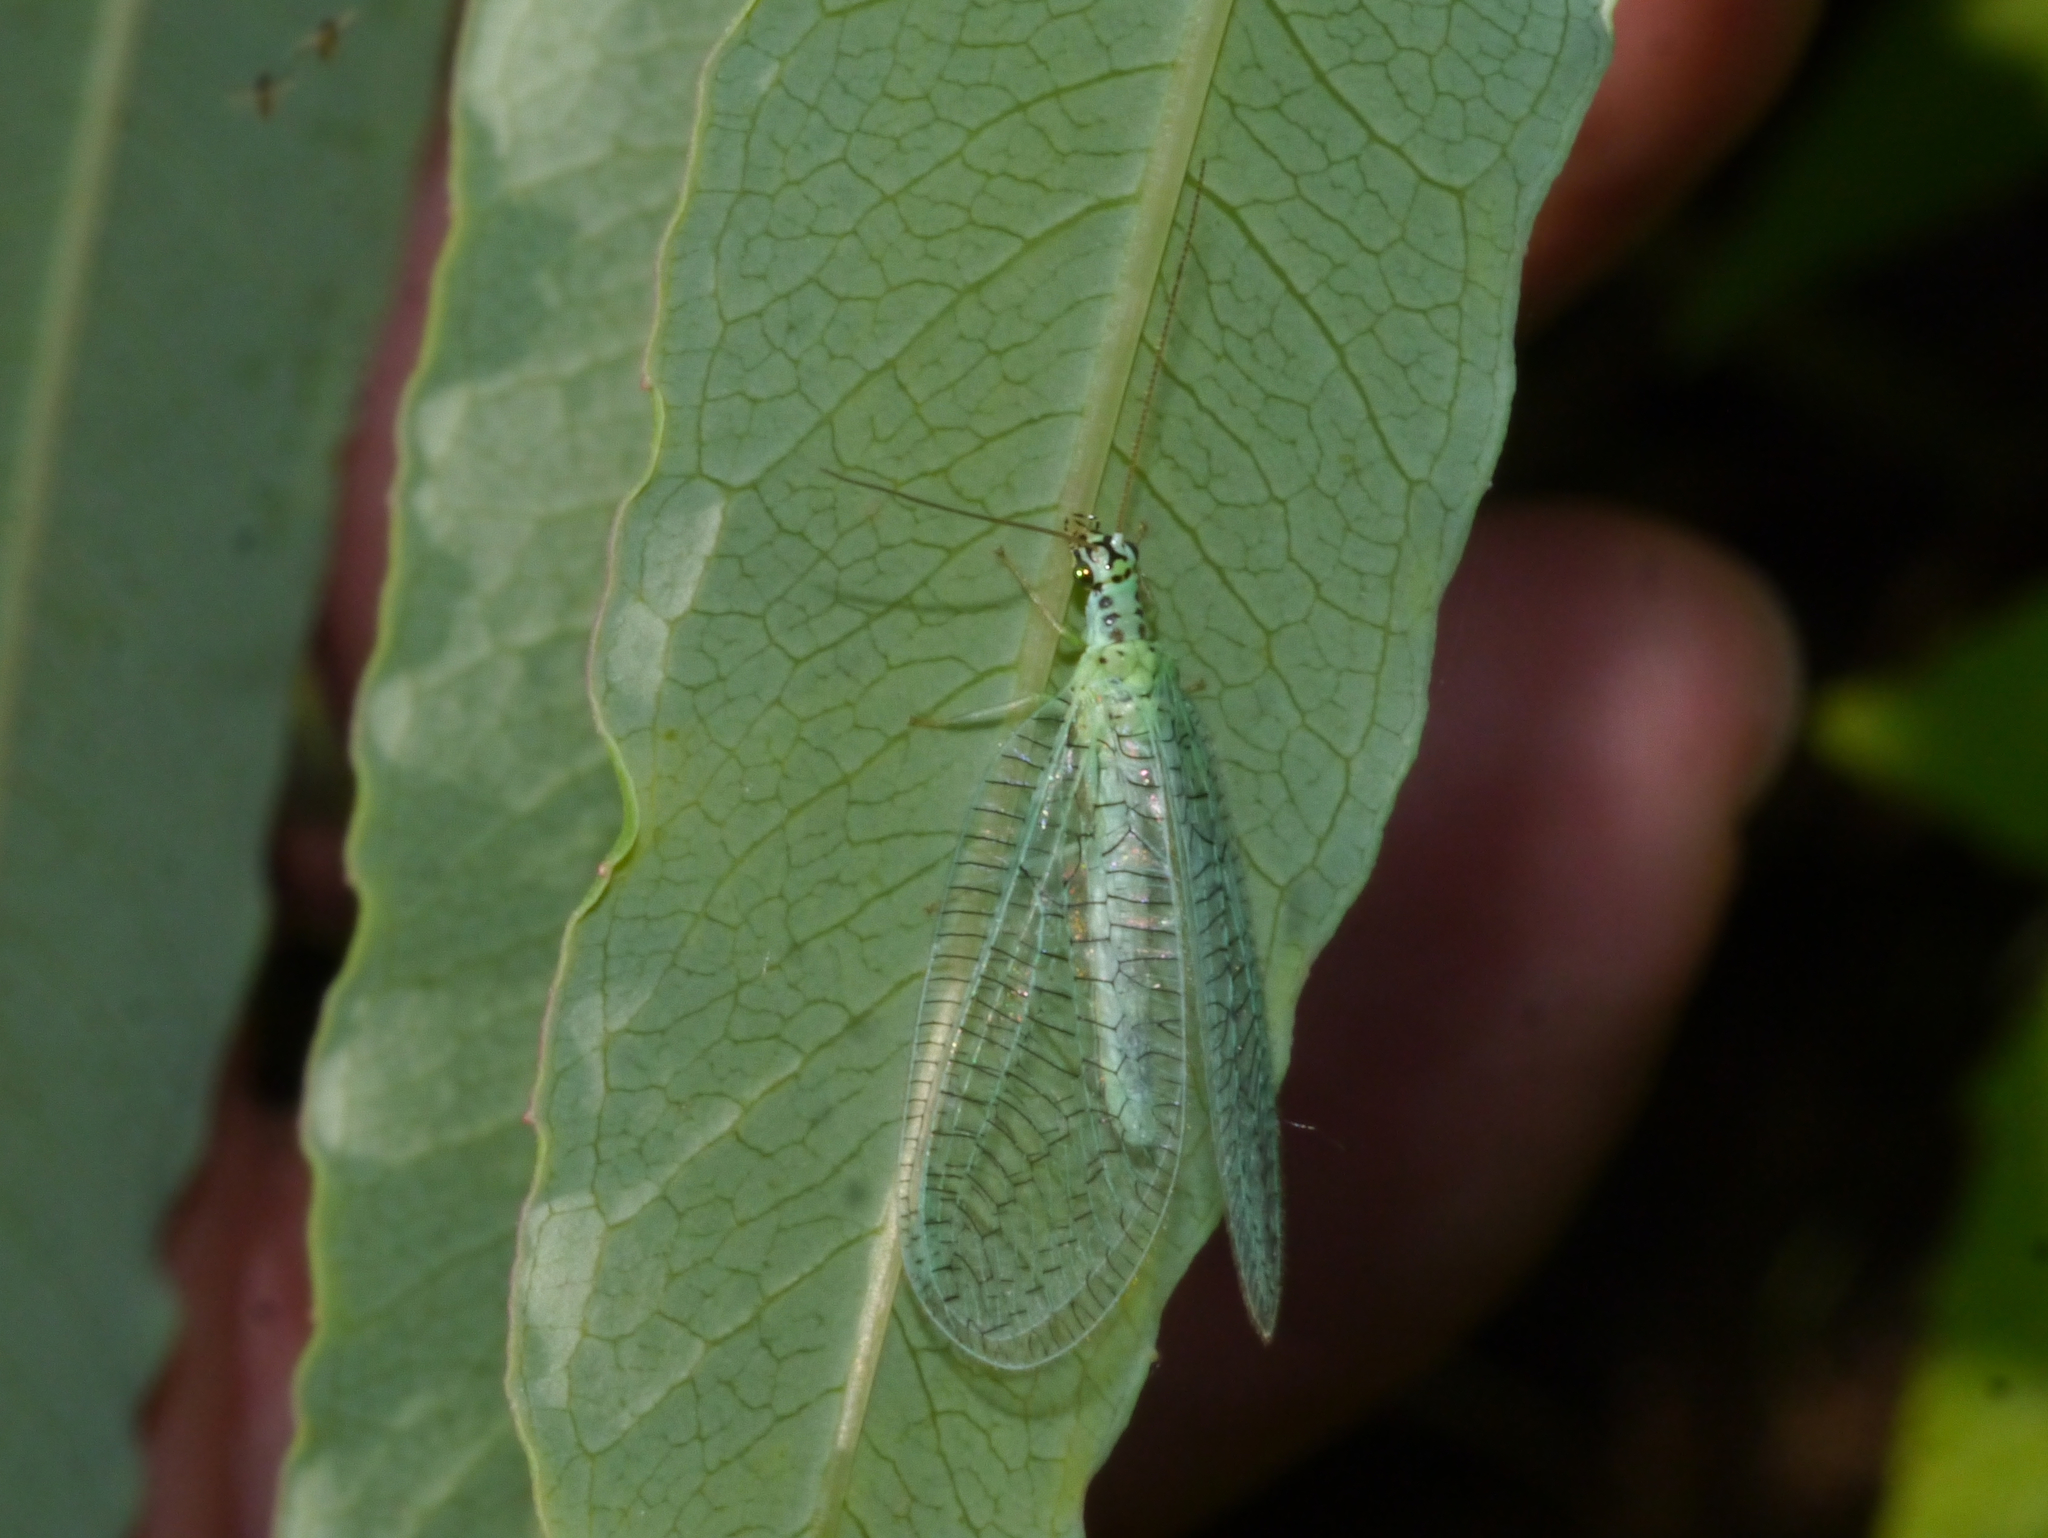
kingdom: Animalia
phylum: Arthropoda
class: Insecta
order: Neuroptera
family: Chrysopidae
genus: Chrysopa
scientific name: Chrysopa chi
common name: X-marked green lacewing
